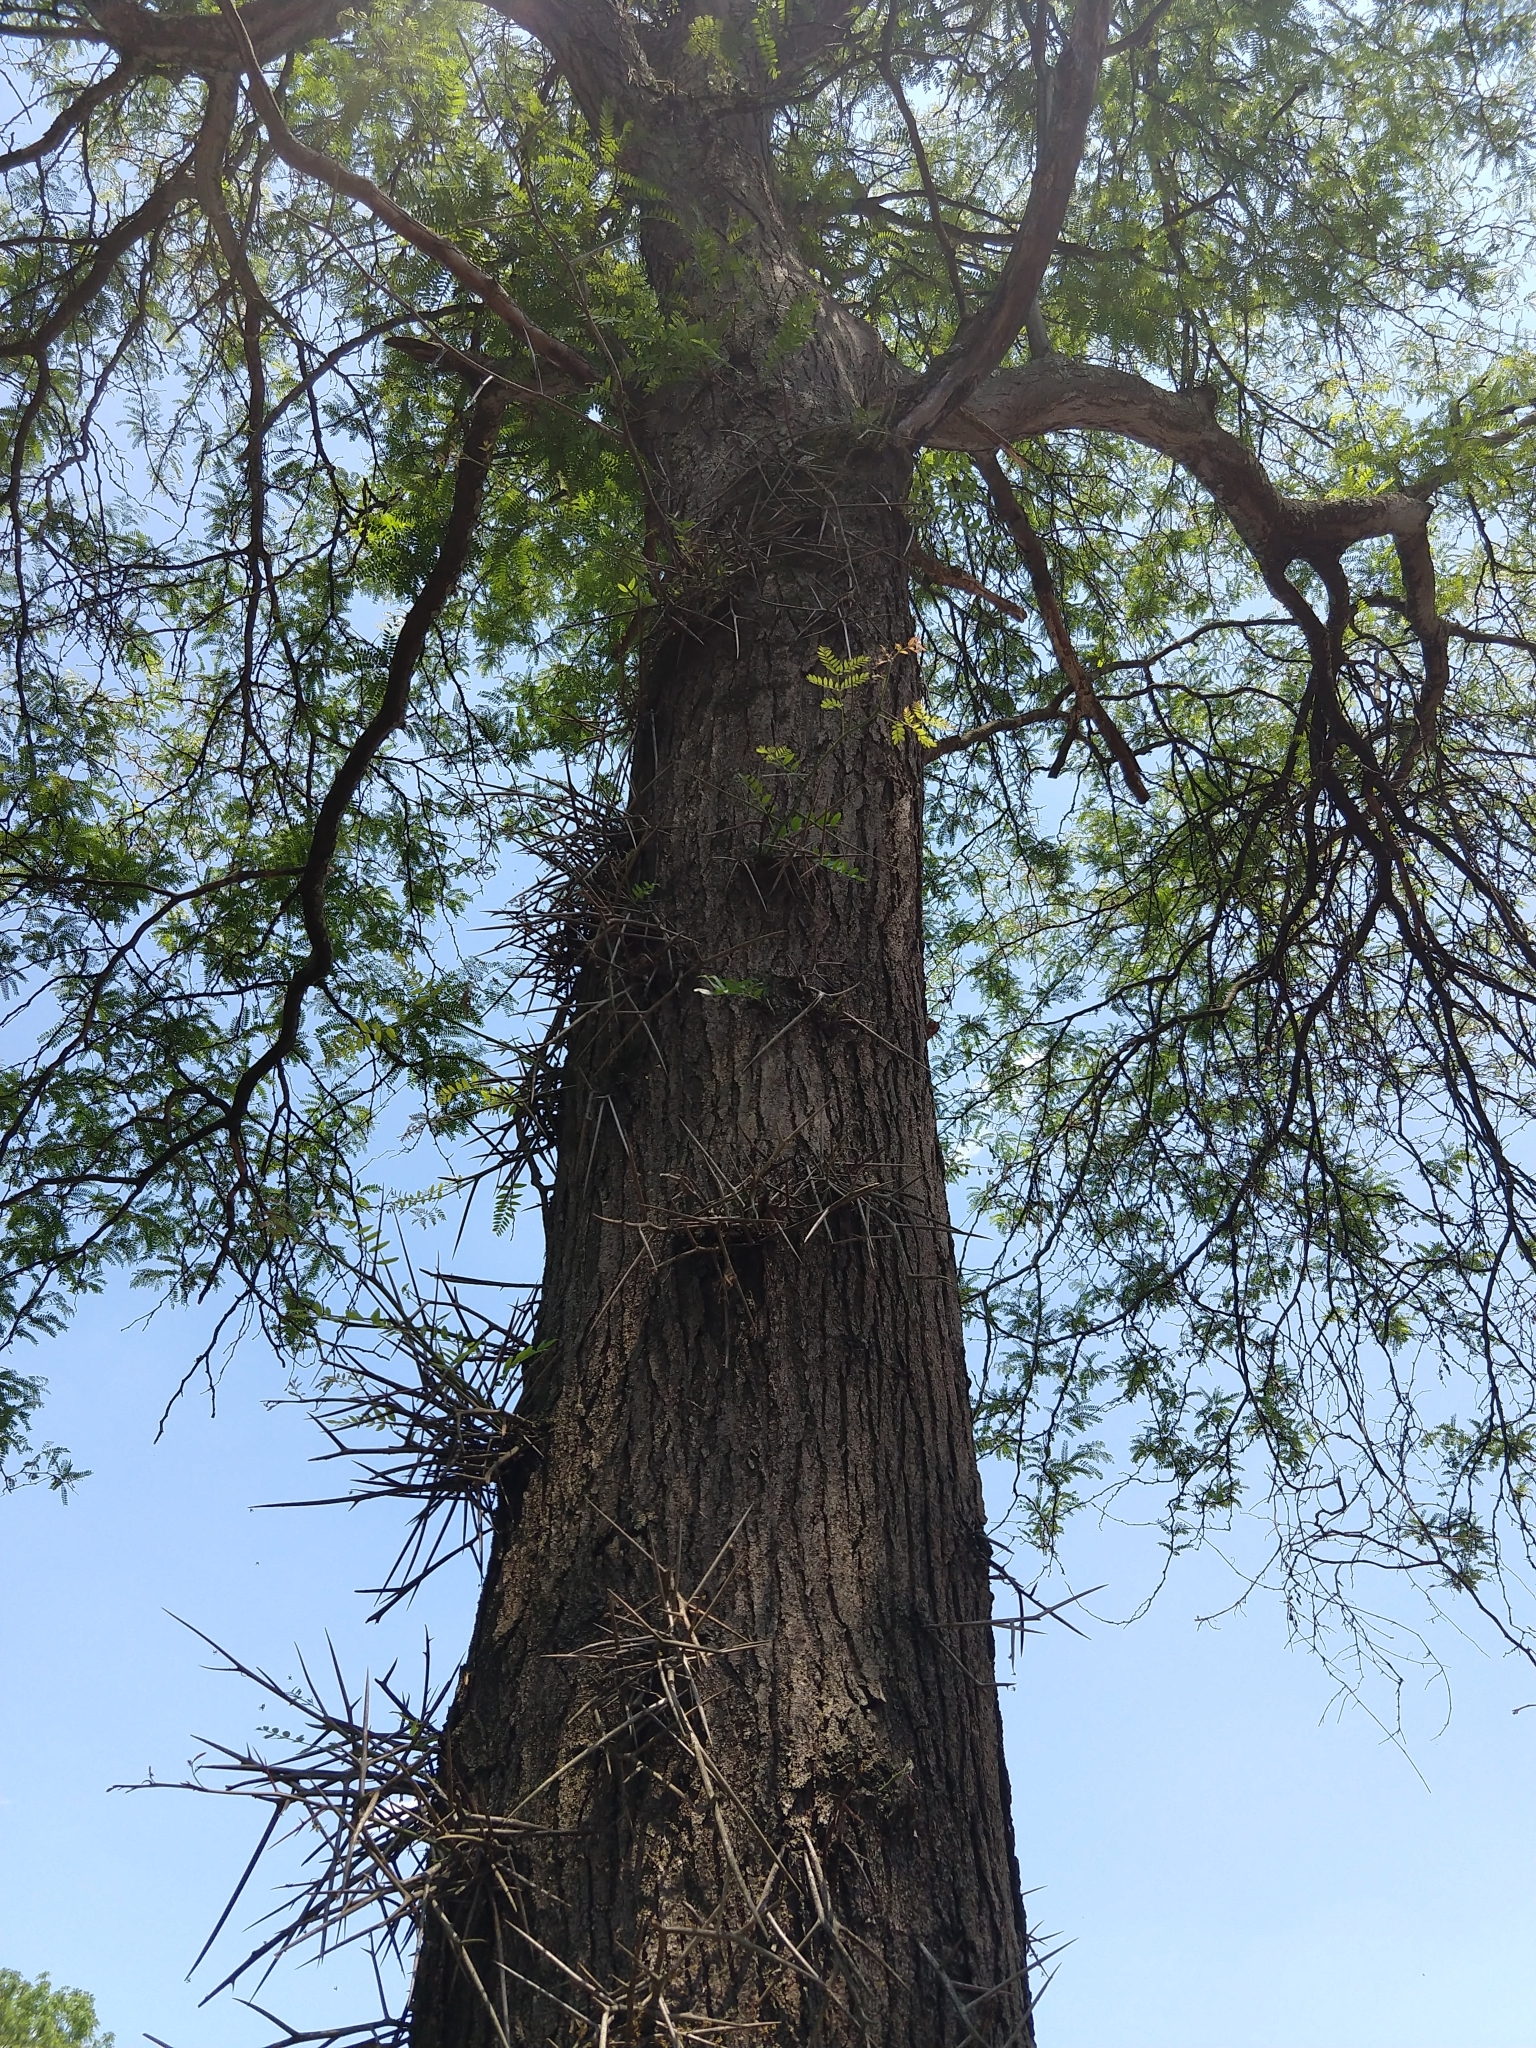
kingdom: Plantae
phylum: Tracheophyta
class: Magnoliopsida
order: Fabales
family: Fabaceae
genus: Gleditsia
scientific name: Gleditsia triacanthos
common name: Common honeylocust
